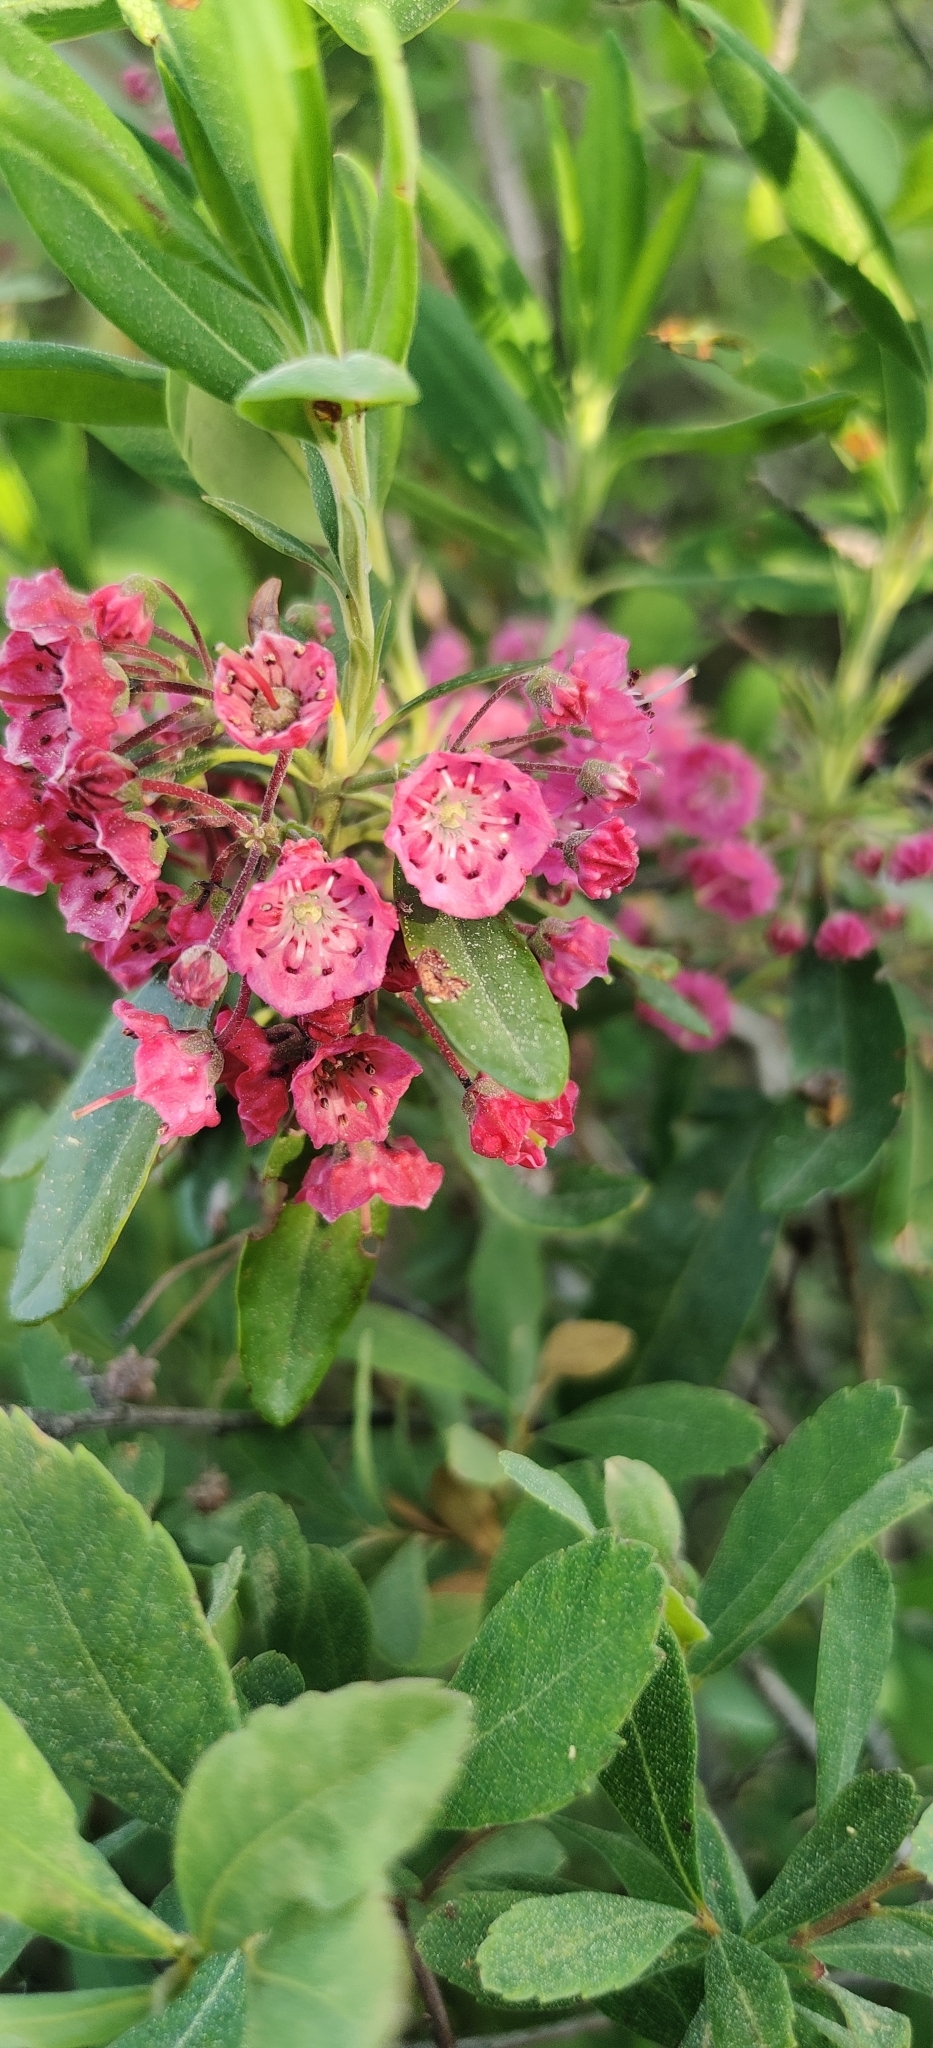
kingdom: Plantae
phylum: Tracheophyta
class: Magnoliopsida
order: Ericales
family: Ericaceae
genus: Kalmia
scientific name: Kalmia angustifolia
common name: Sheep-laurel
